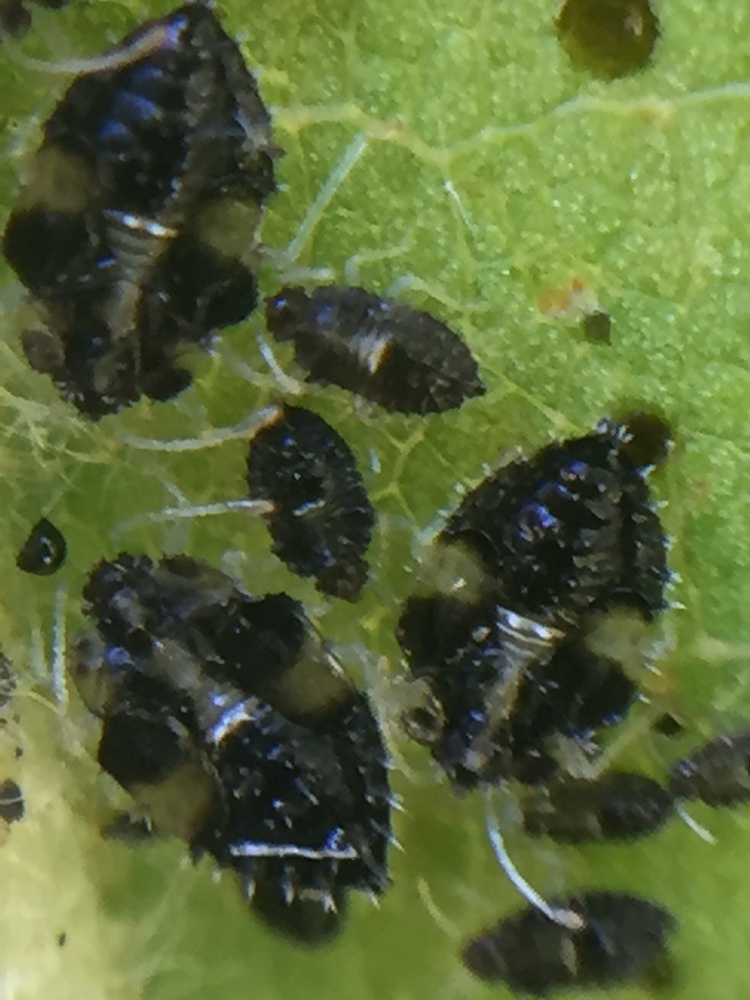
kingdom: Animalia
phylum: Arthropoda
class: Insecta
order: Hemiptera
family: Tingidae
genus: Corythucha
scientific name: Corythucha ciliata
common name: Sycamore lace bug
